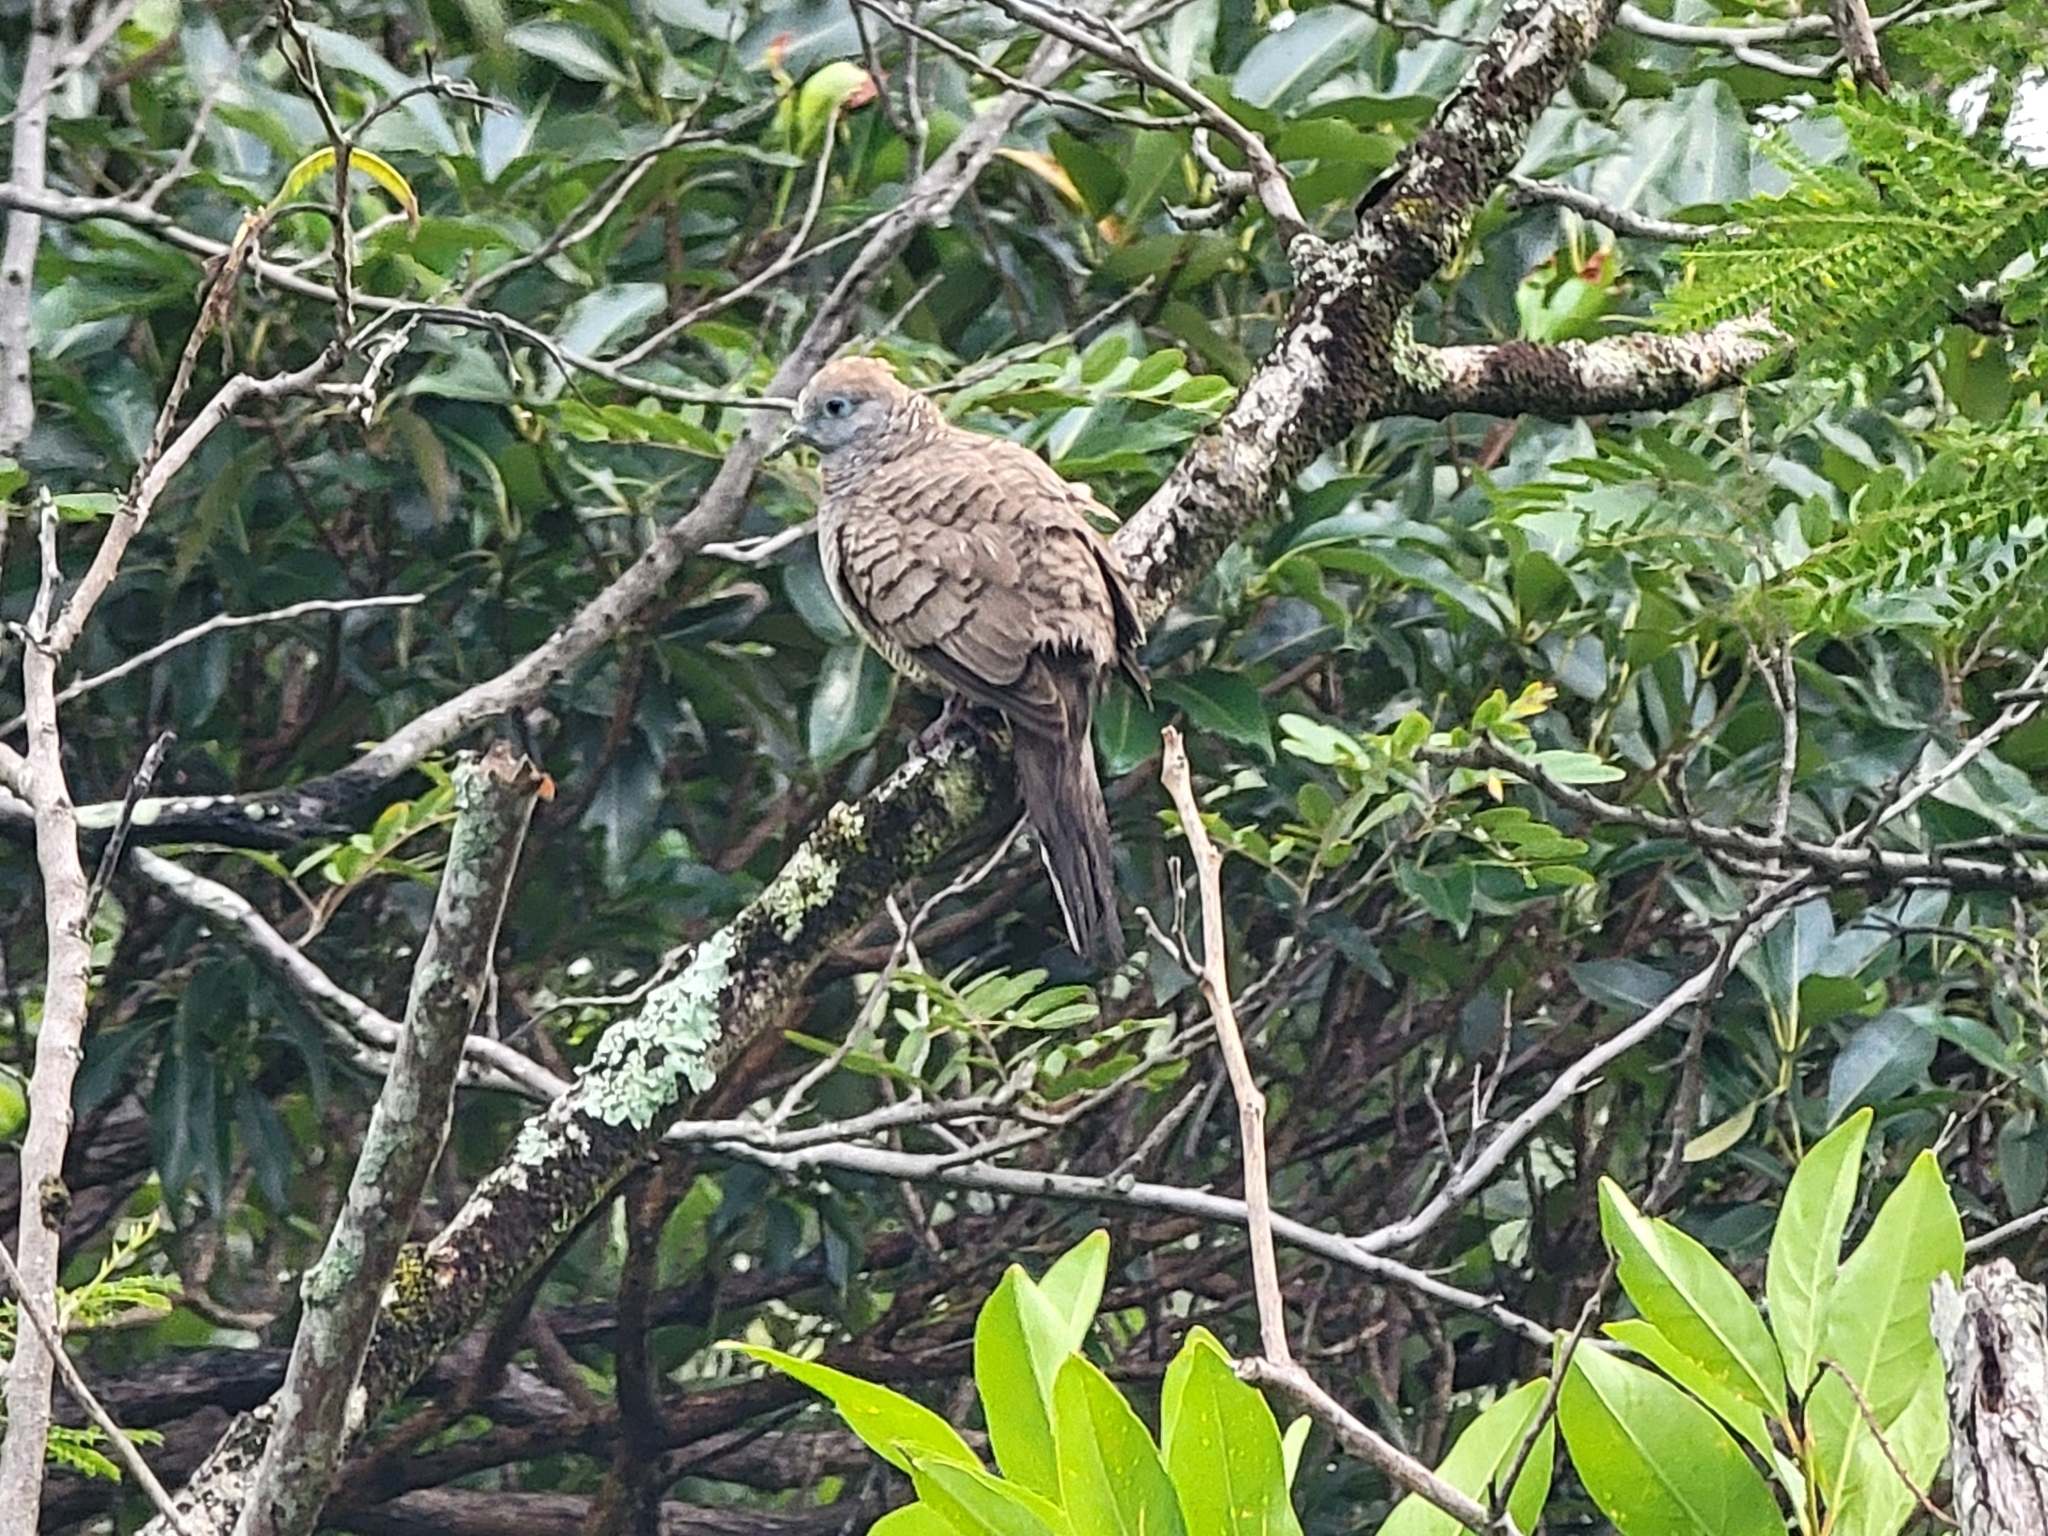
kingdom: Animalia
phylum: Chordata
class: Aves
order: Columbiformes
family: Columbidae
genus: Geopelia
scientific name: Geopelia striata
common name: Zebra dove
